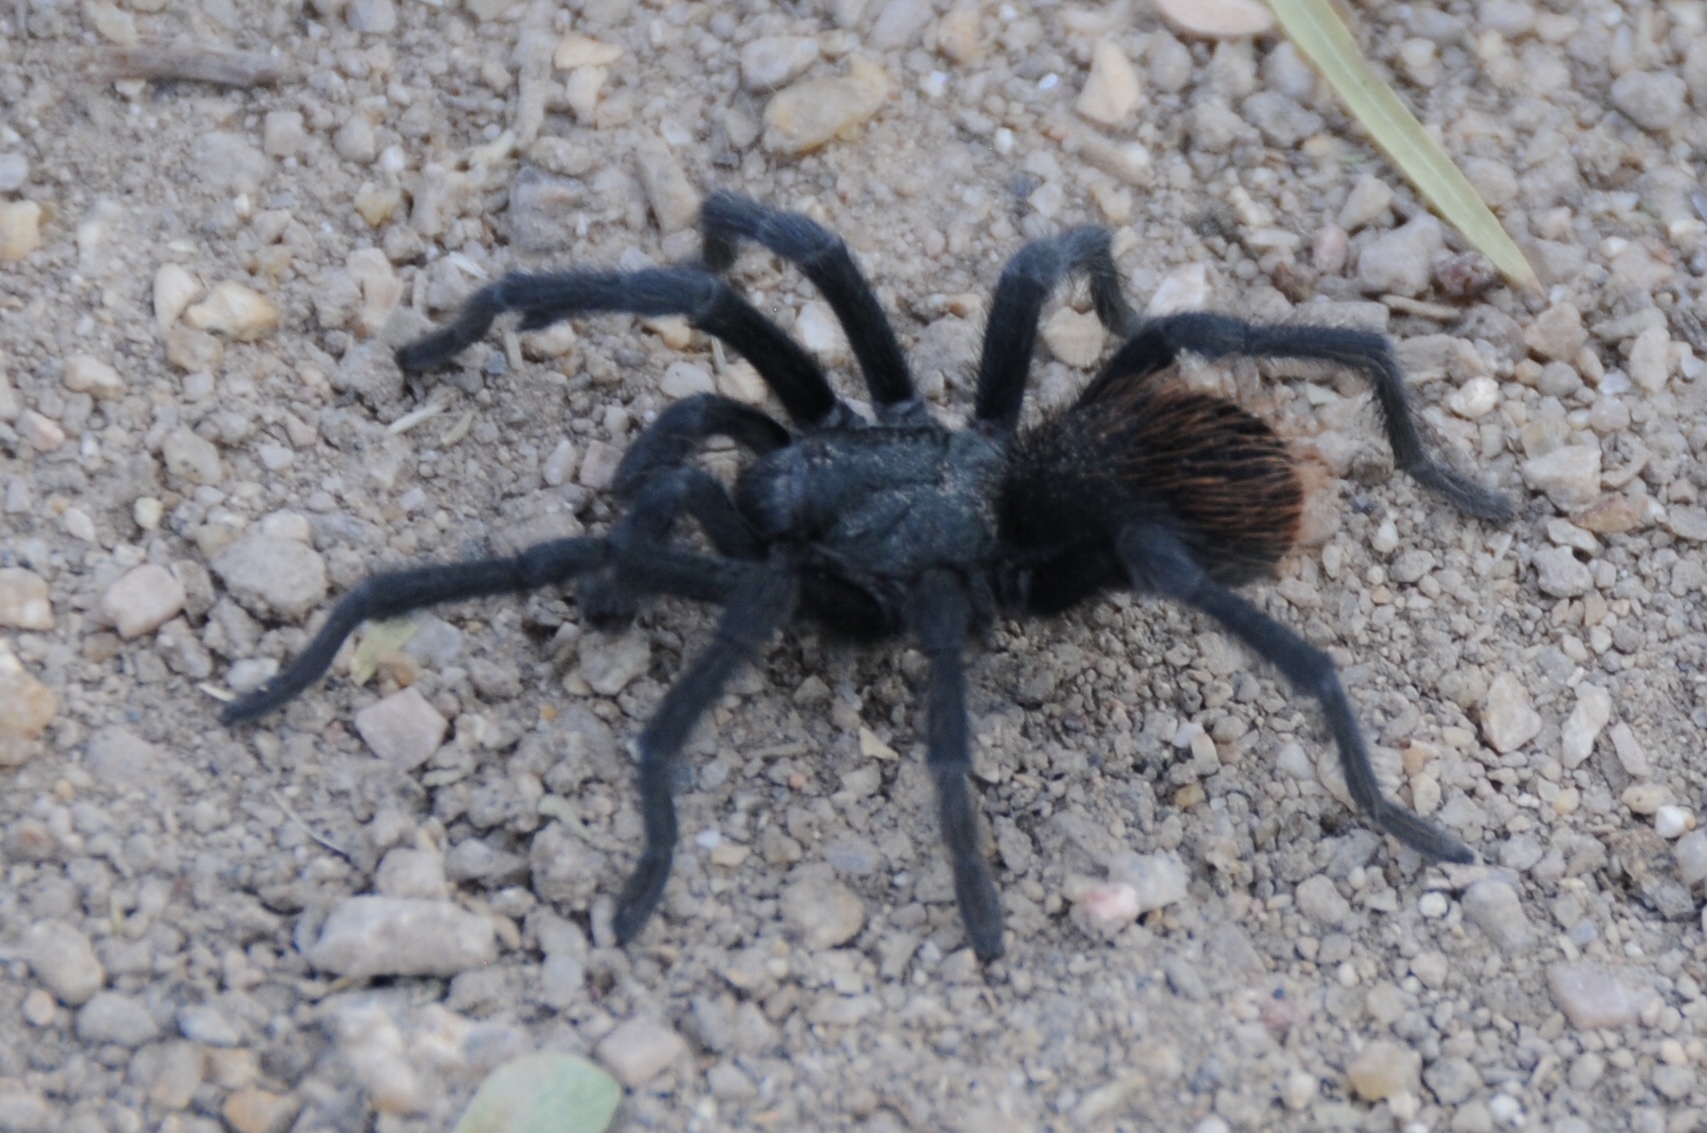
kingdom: Animalia
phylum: Arthropoda
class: Arachnida
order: Araneae
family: Theraphosidae
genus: Aphonopelma
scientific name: Aphonopelma vorhiesi
